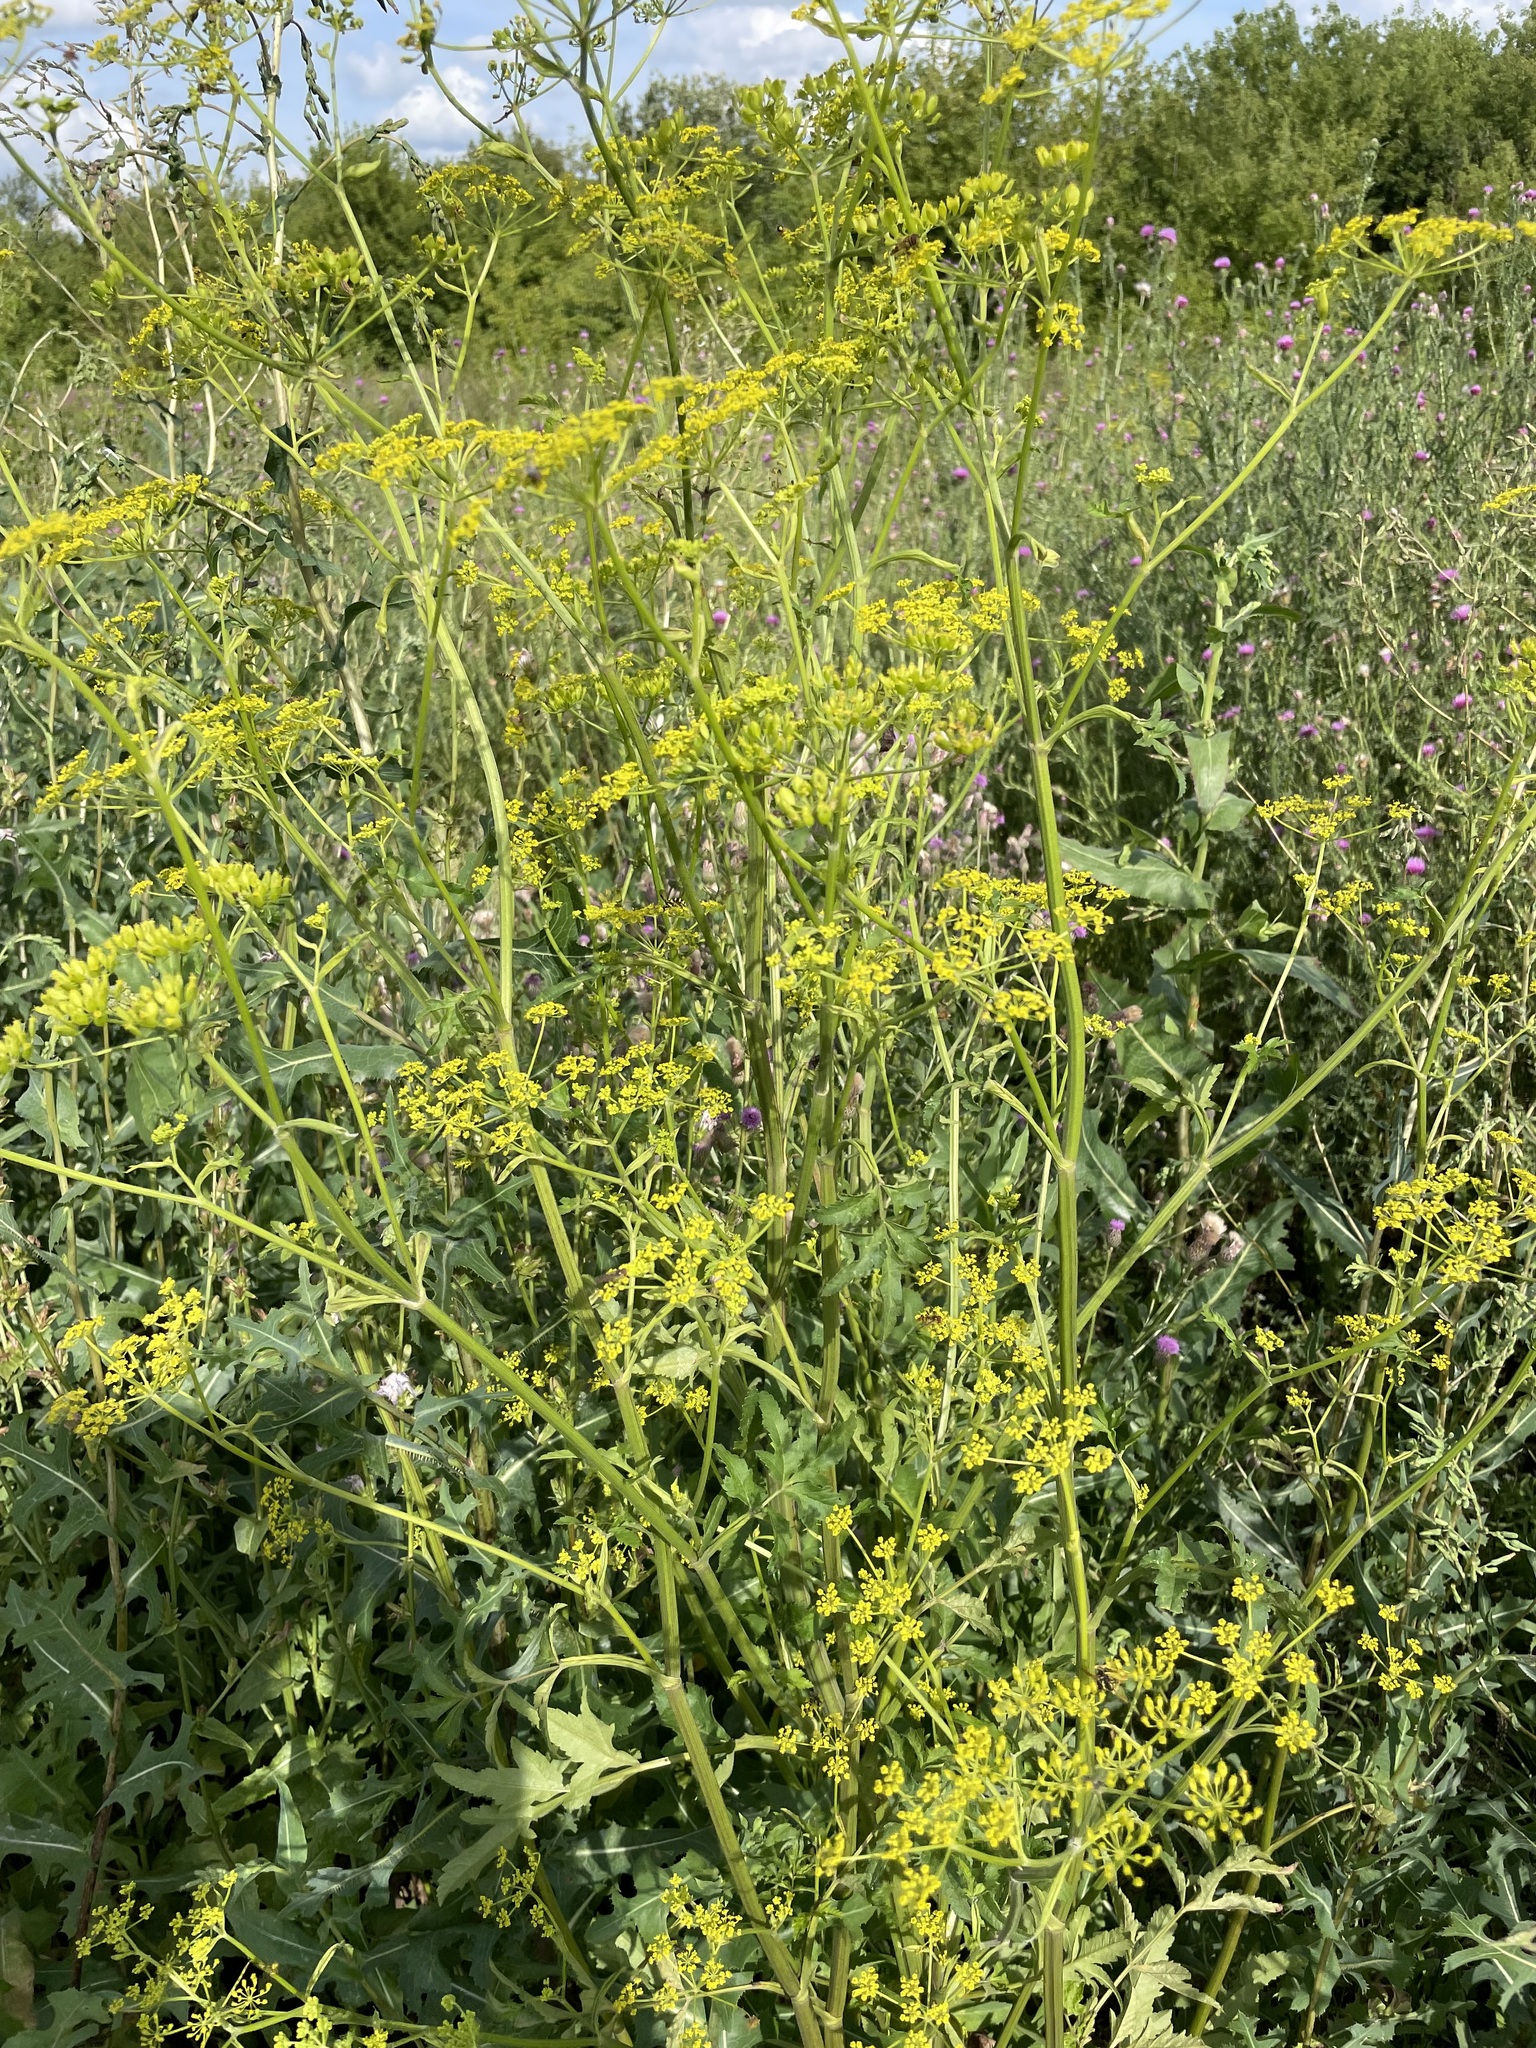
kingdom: Plantae
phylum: Tracheophyta
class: Magnoliopsida
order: Apiales
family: Apiaceae
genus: Pastinaca
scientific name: Pastinaca sativa
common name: Wild parsnip
